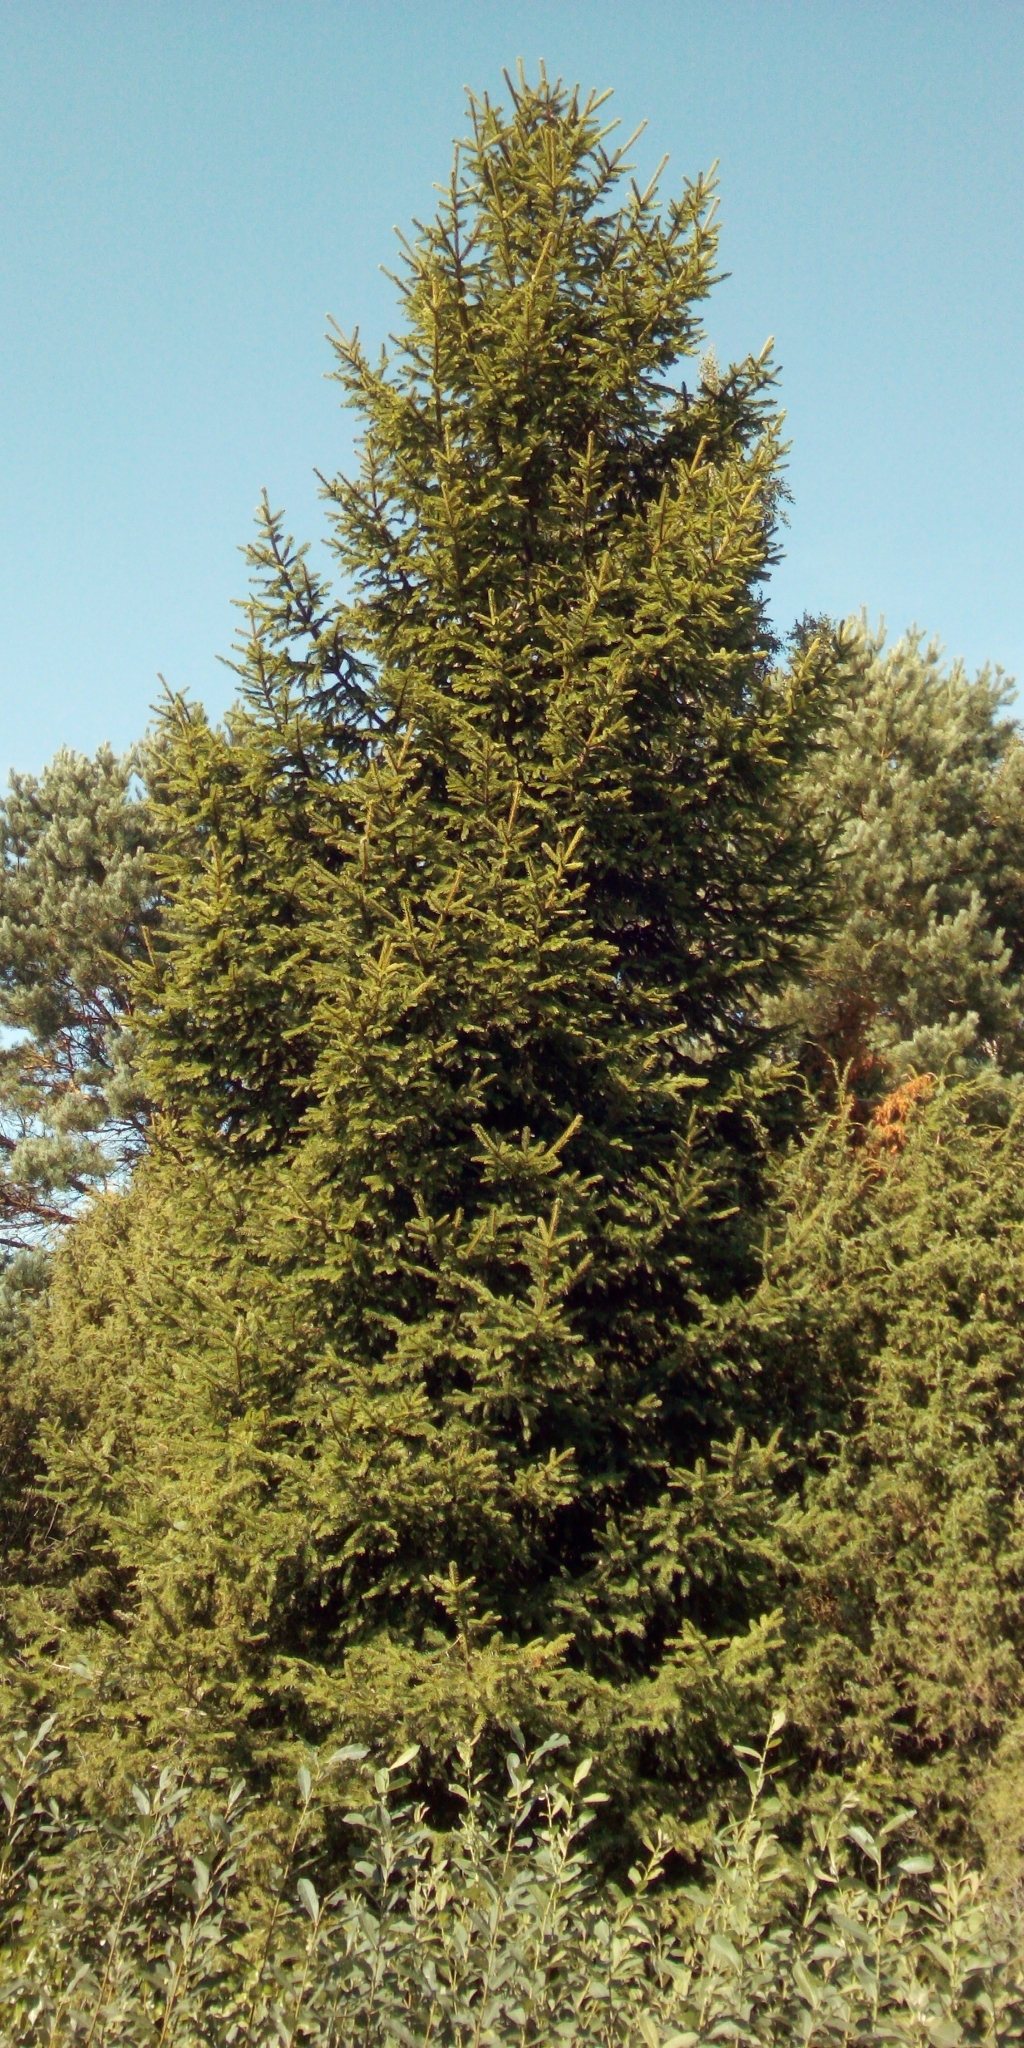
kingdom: Plantae
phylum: Tracheophyta
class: Pinopsida
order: Pinales
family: Pinaceae
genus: Picea
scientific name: Picea abies
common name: Norway spruce
